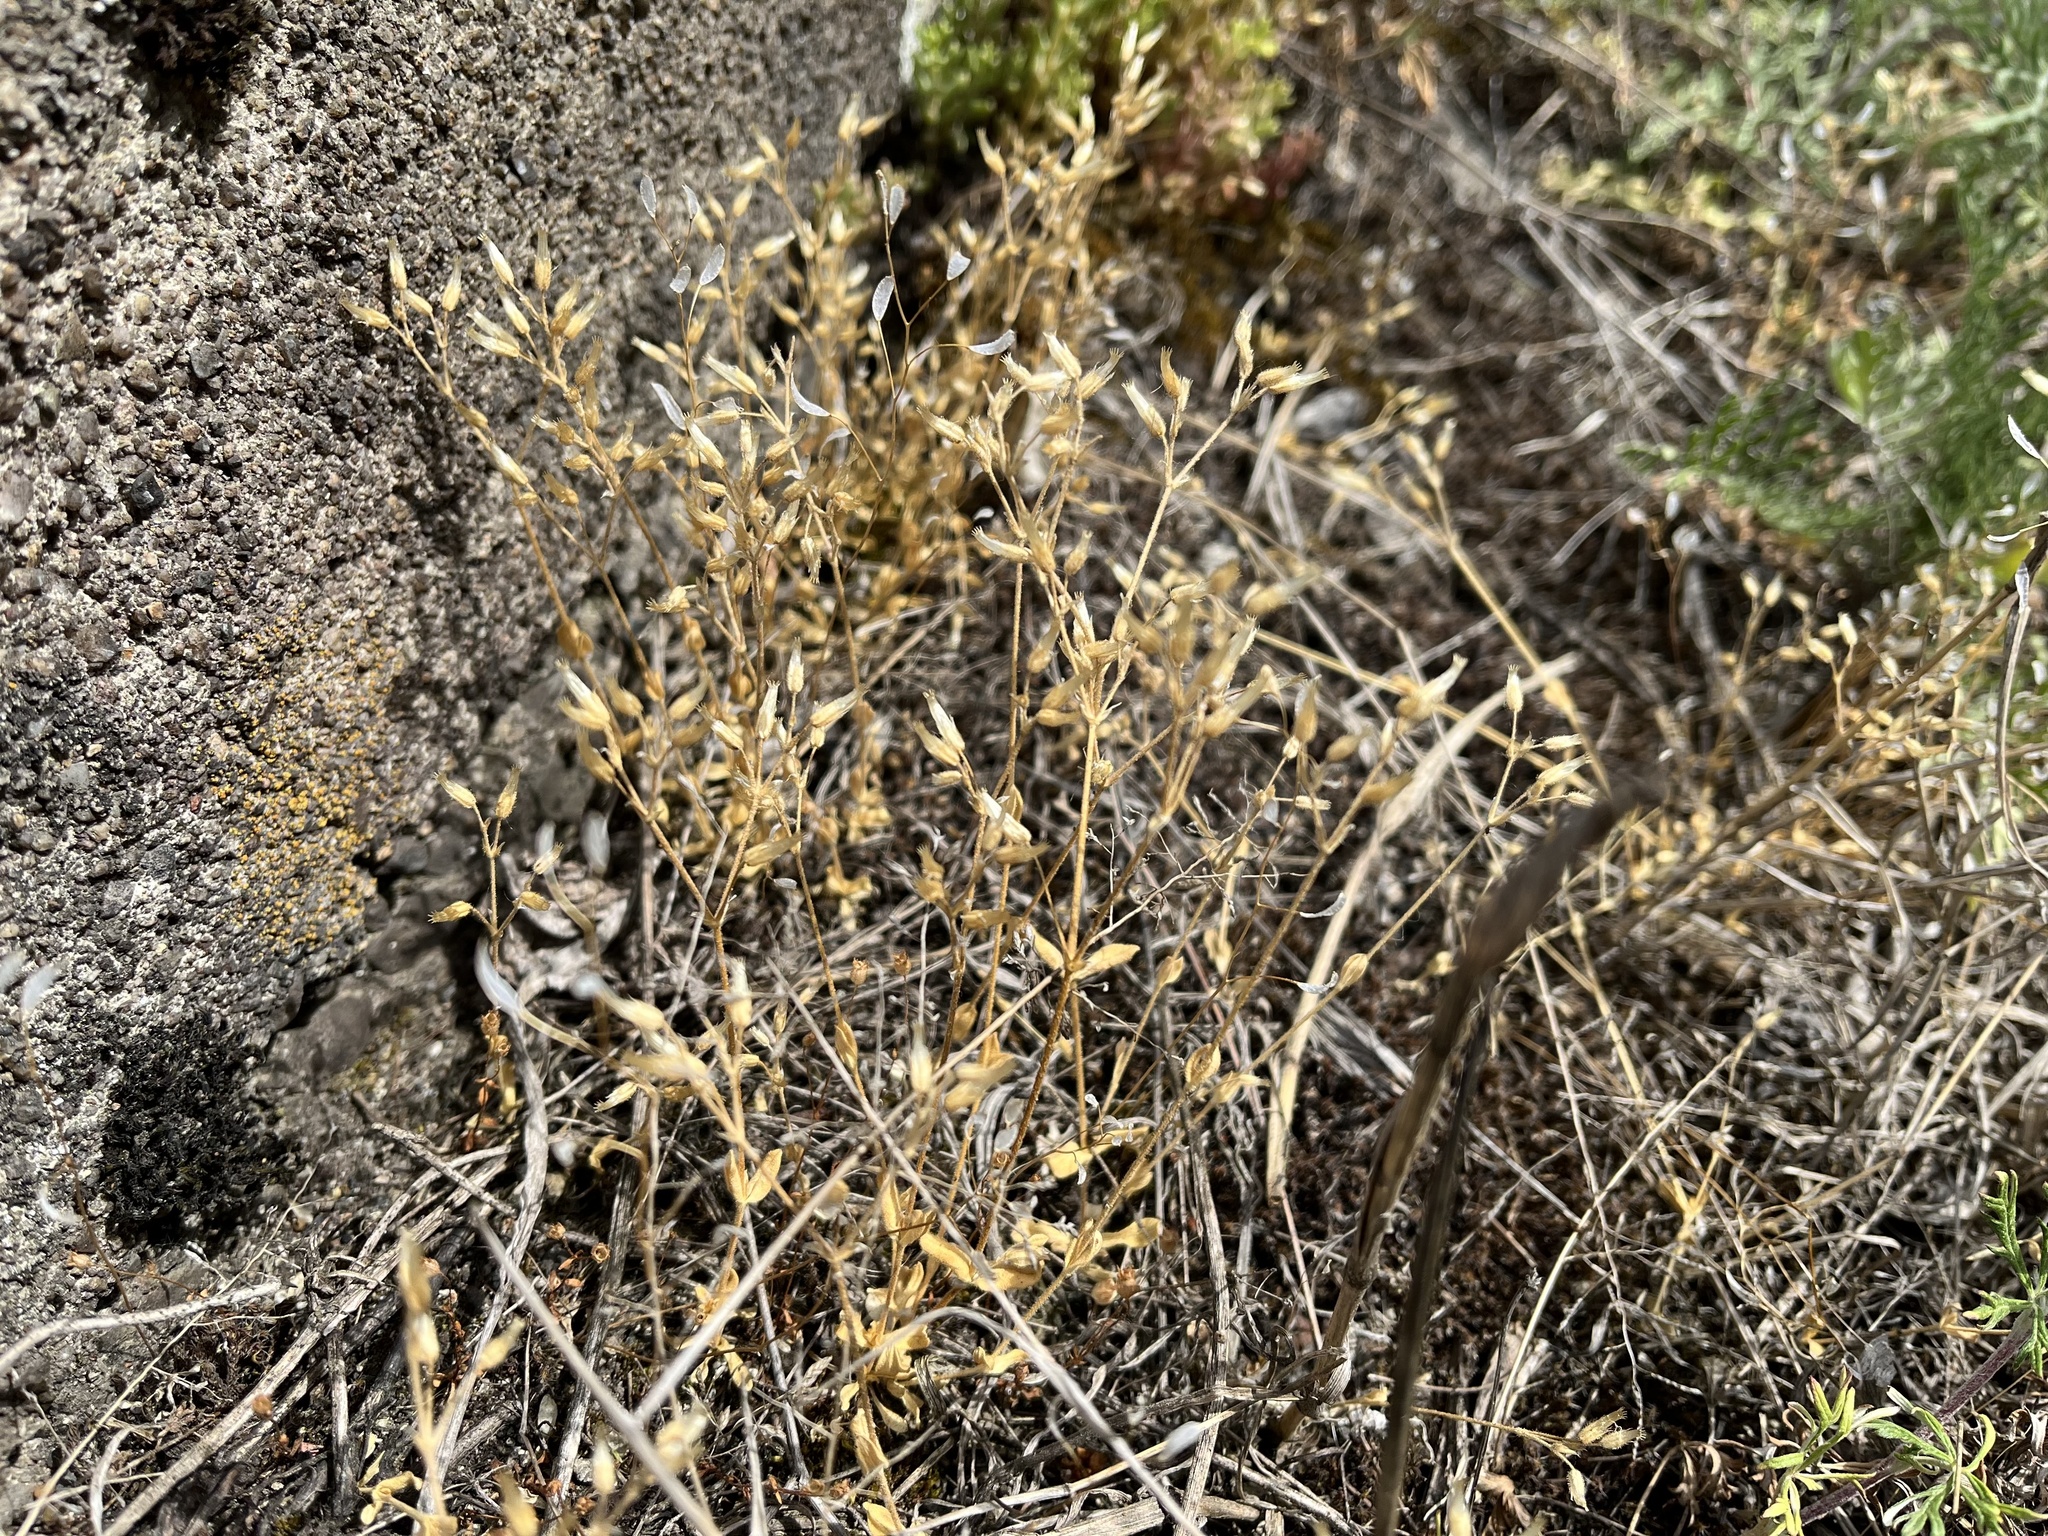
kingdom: Plantae
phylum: Tracheophyta
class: Magnoliopsida
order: Caryophyllales
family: Caryophyllaceae
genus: Cerastium
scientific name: Cerastium semidecandrum
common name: Little mouse-ear
